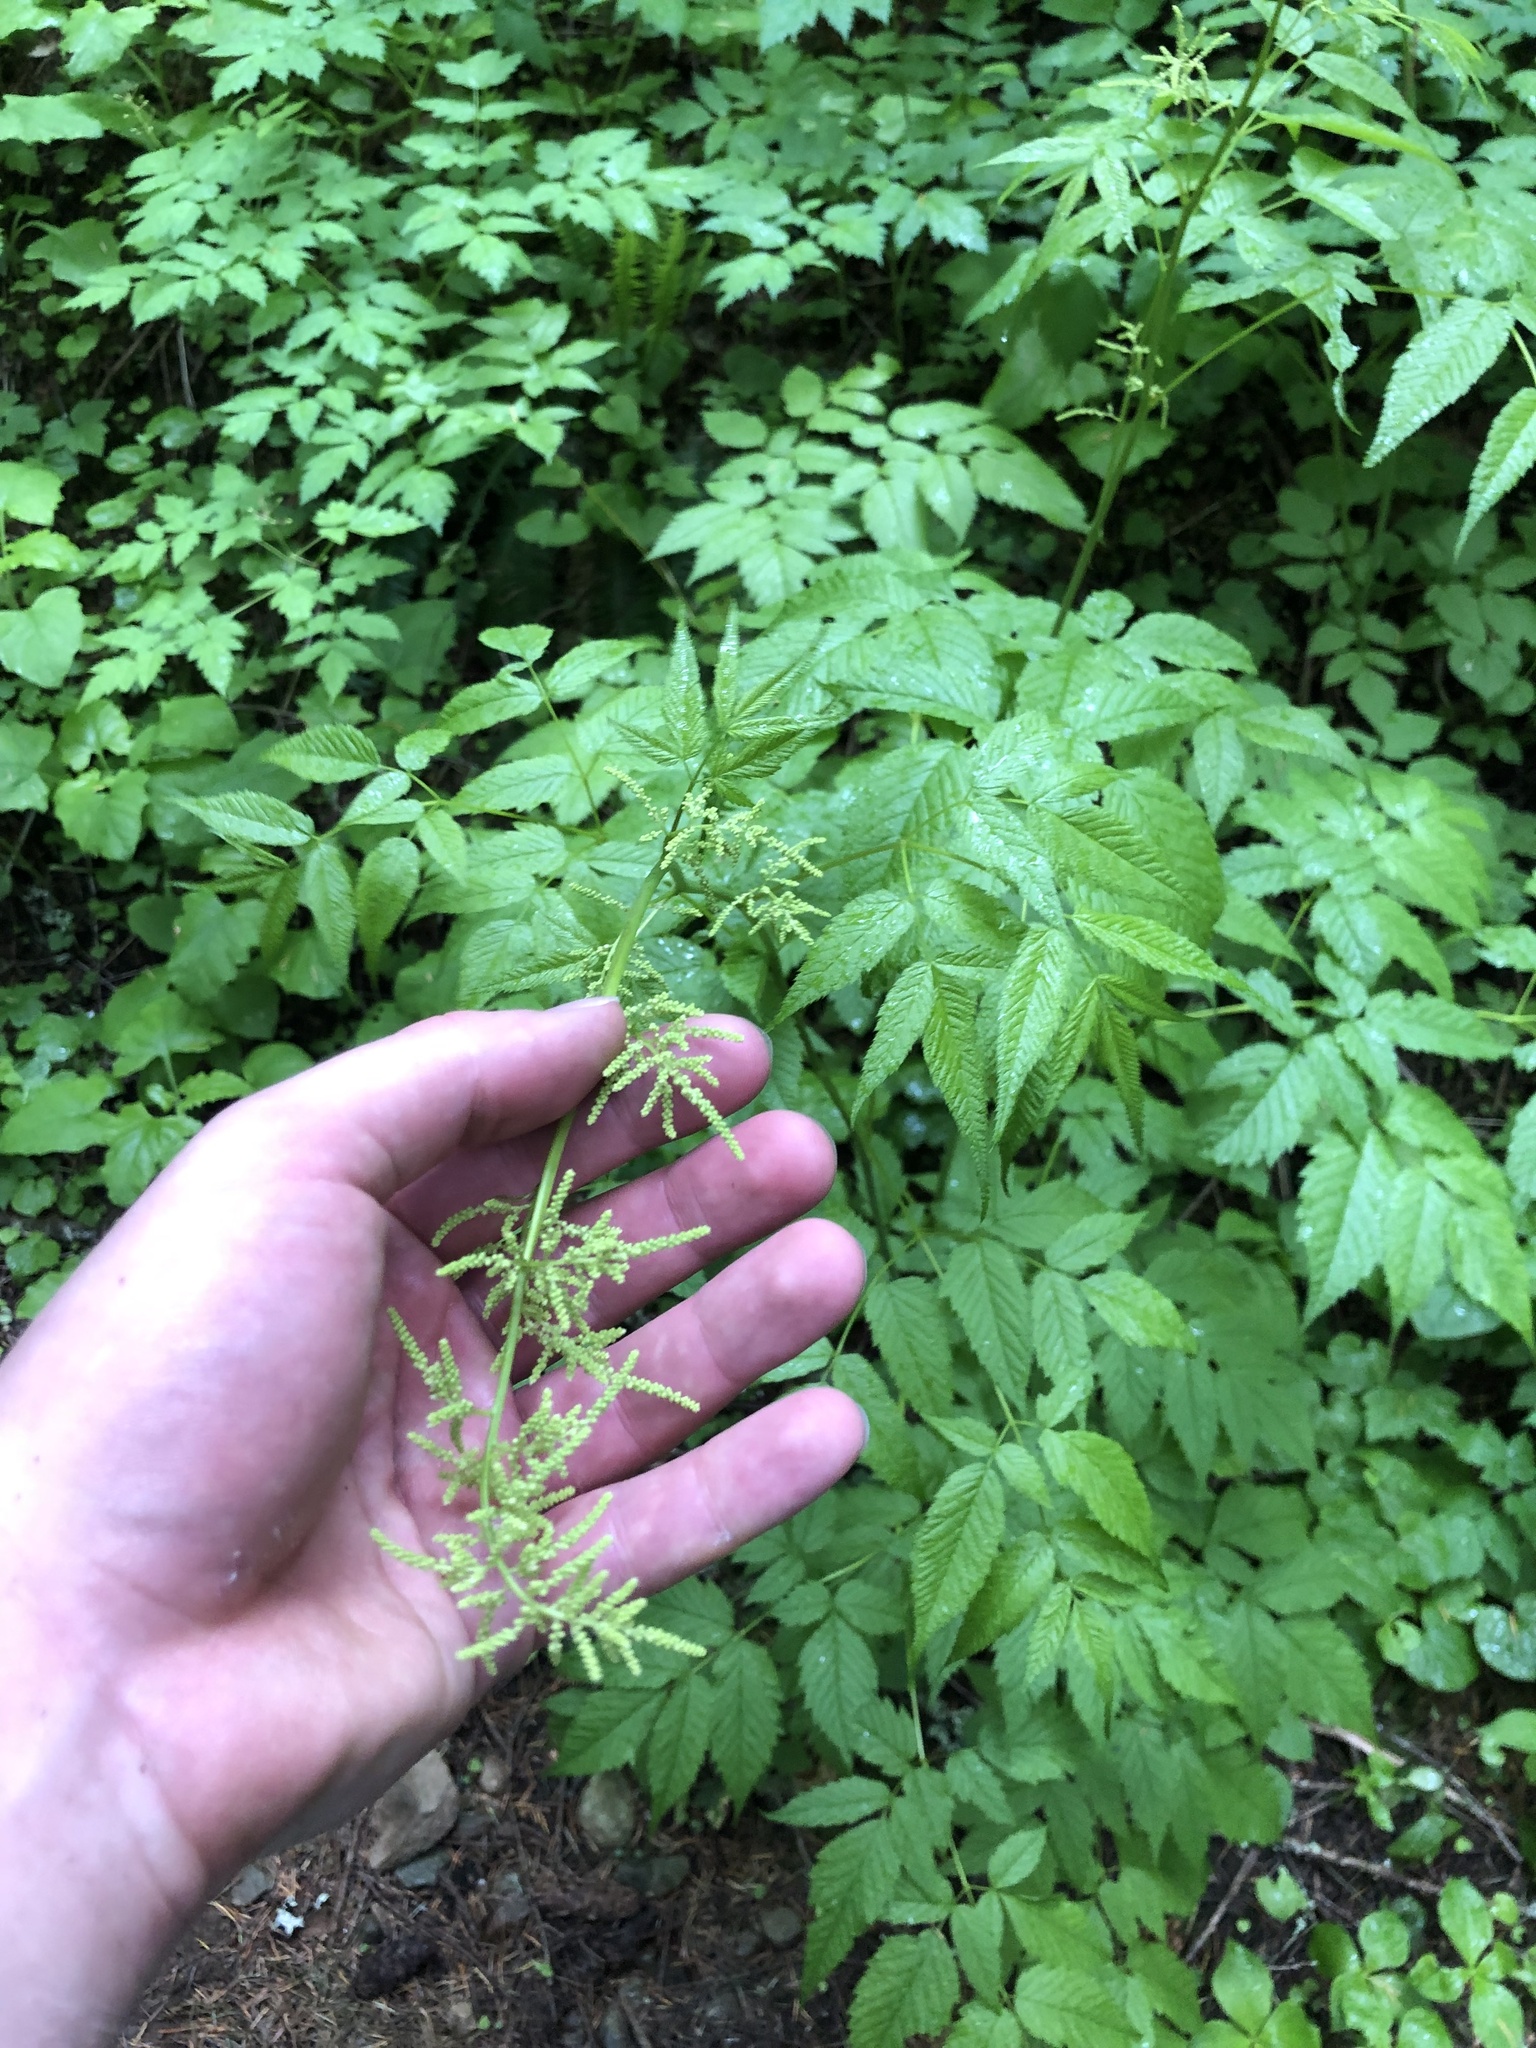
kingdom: Plantae
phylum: Tracheophyta
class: Magnoliopsida
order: Rosales
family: Rosaceae
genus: Aruncus
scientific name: Aruncus dioicus
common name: Buck's-beard
